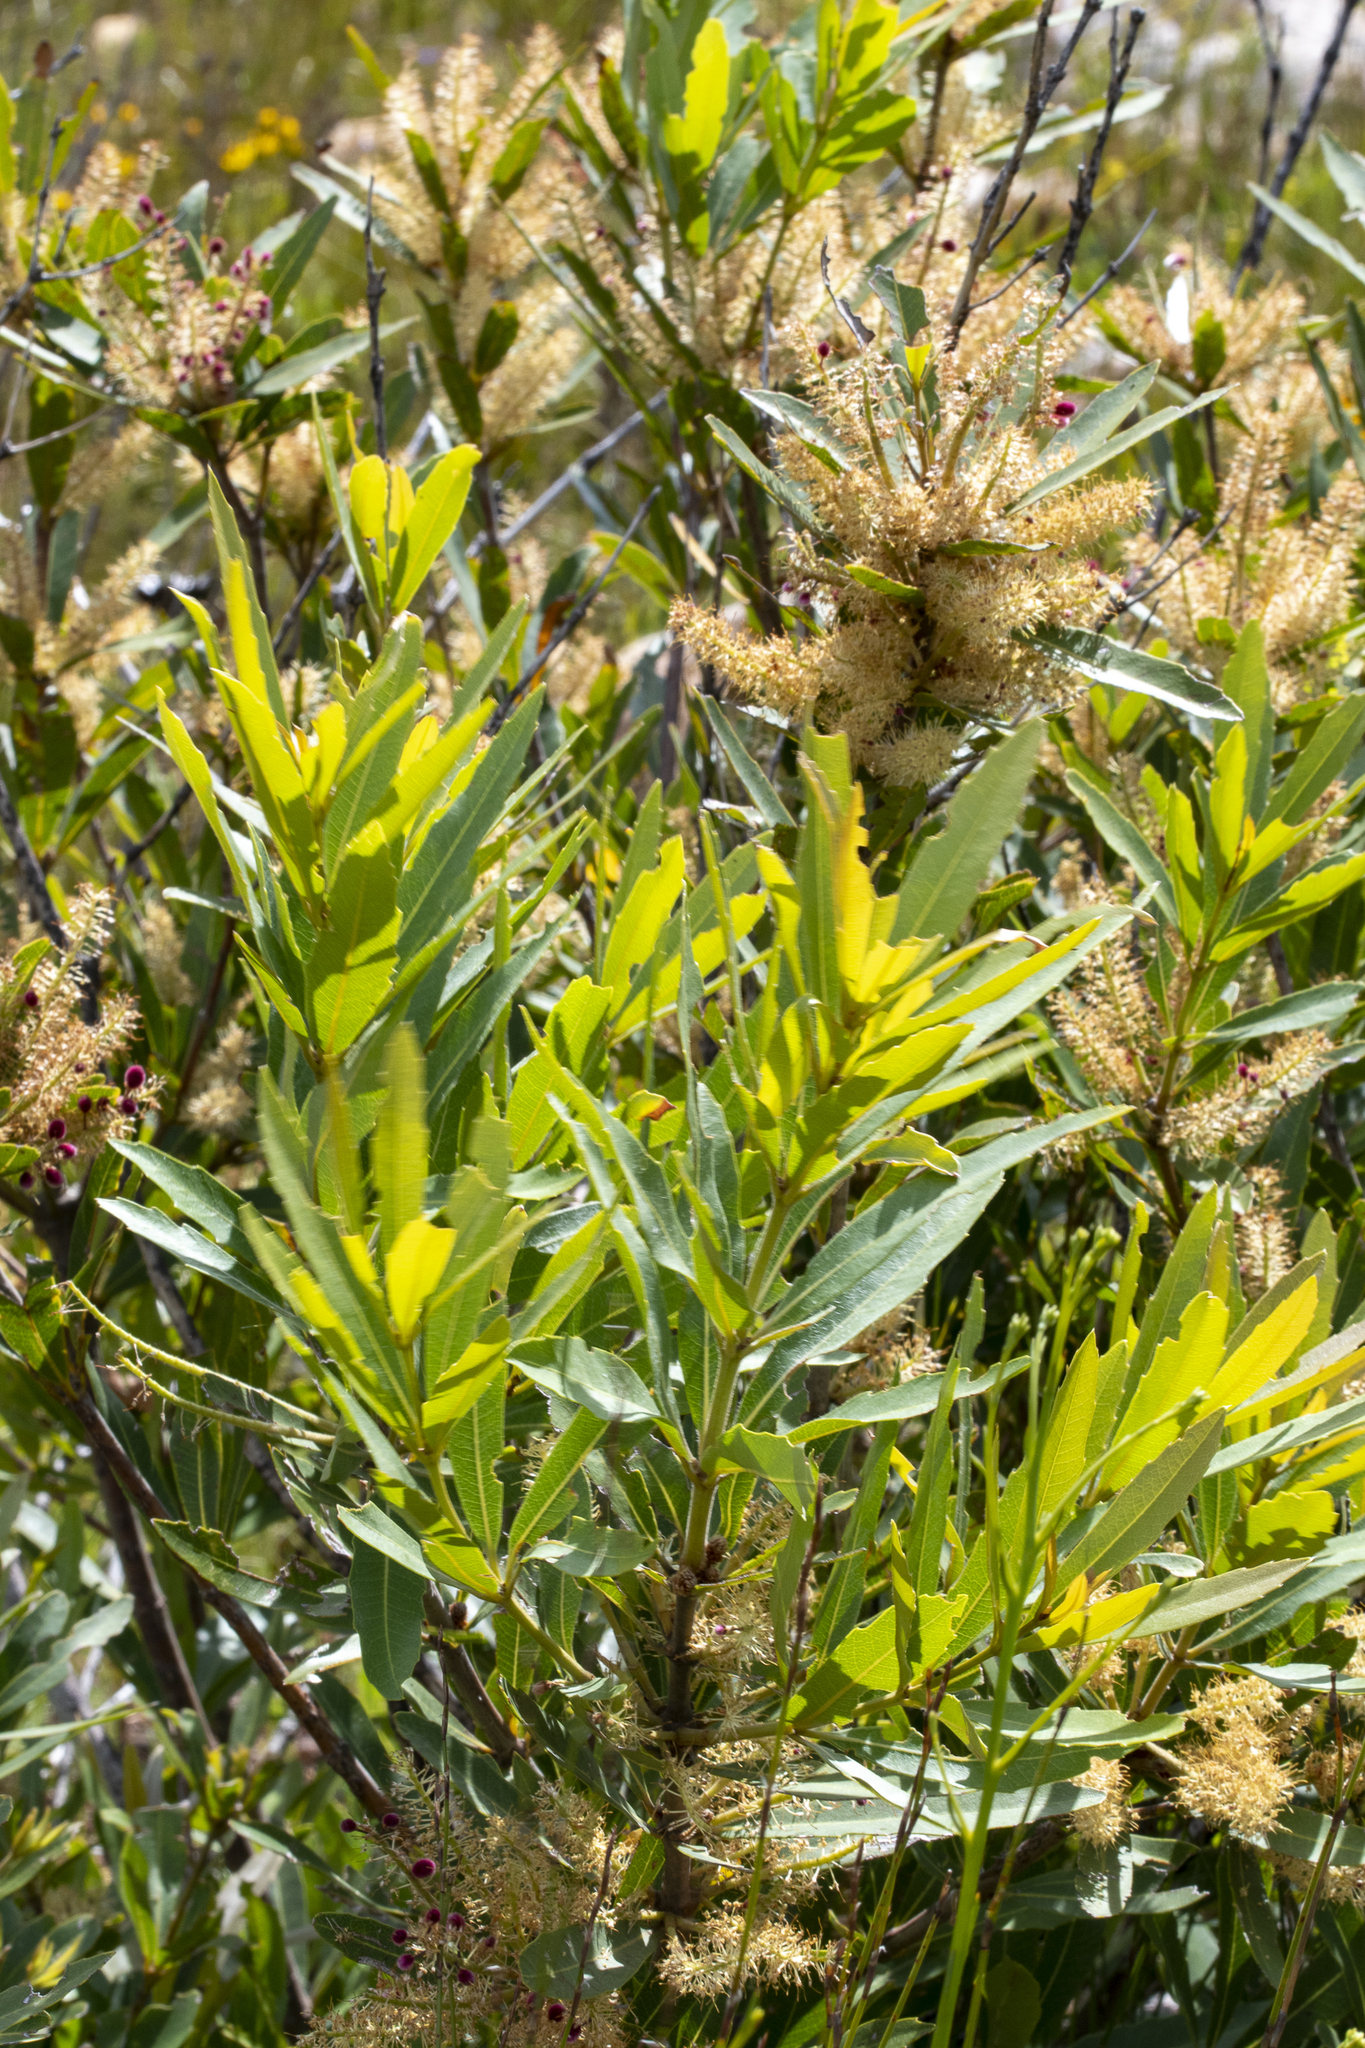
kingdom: Plantae
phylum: Tracheophyta
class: Magnoliopsida
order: Proteales
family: Proteaceae
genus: Brabejum
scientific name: Brabejum stellatifolium
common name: Wild almond
